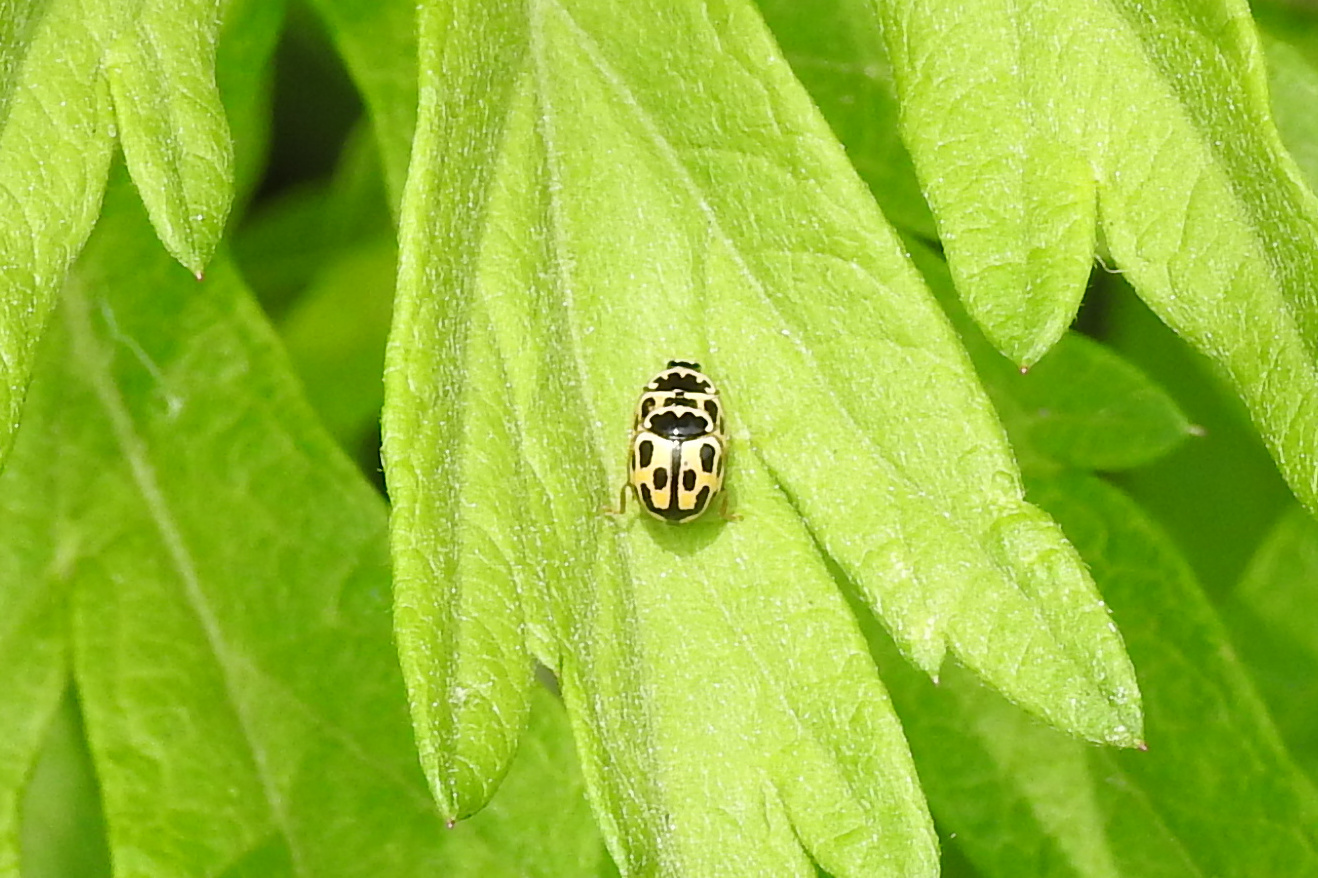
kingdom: Animalia
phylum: Arthropoda
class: Insecta
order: Coleoptera
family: Coccinellidae
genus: Propylaea
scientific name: Propylaea quatuordecimpunctata
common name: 14-spotted ladybird beetle
